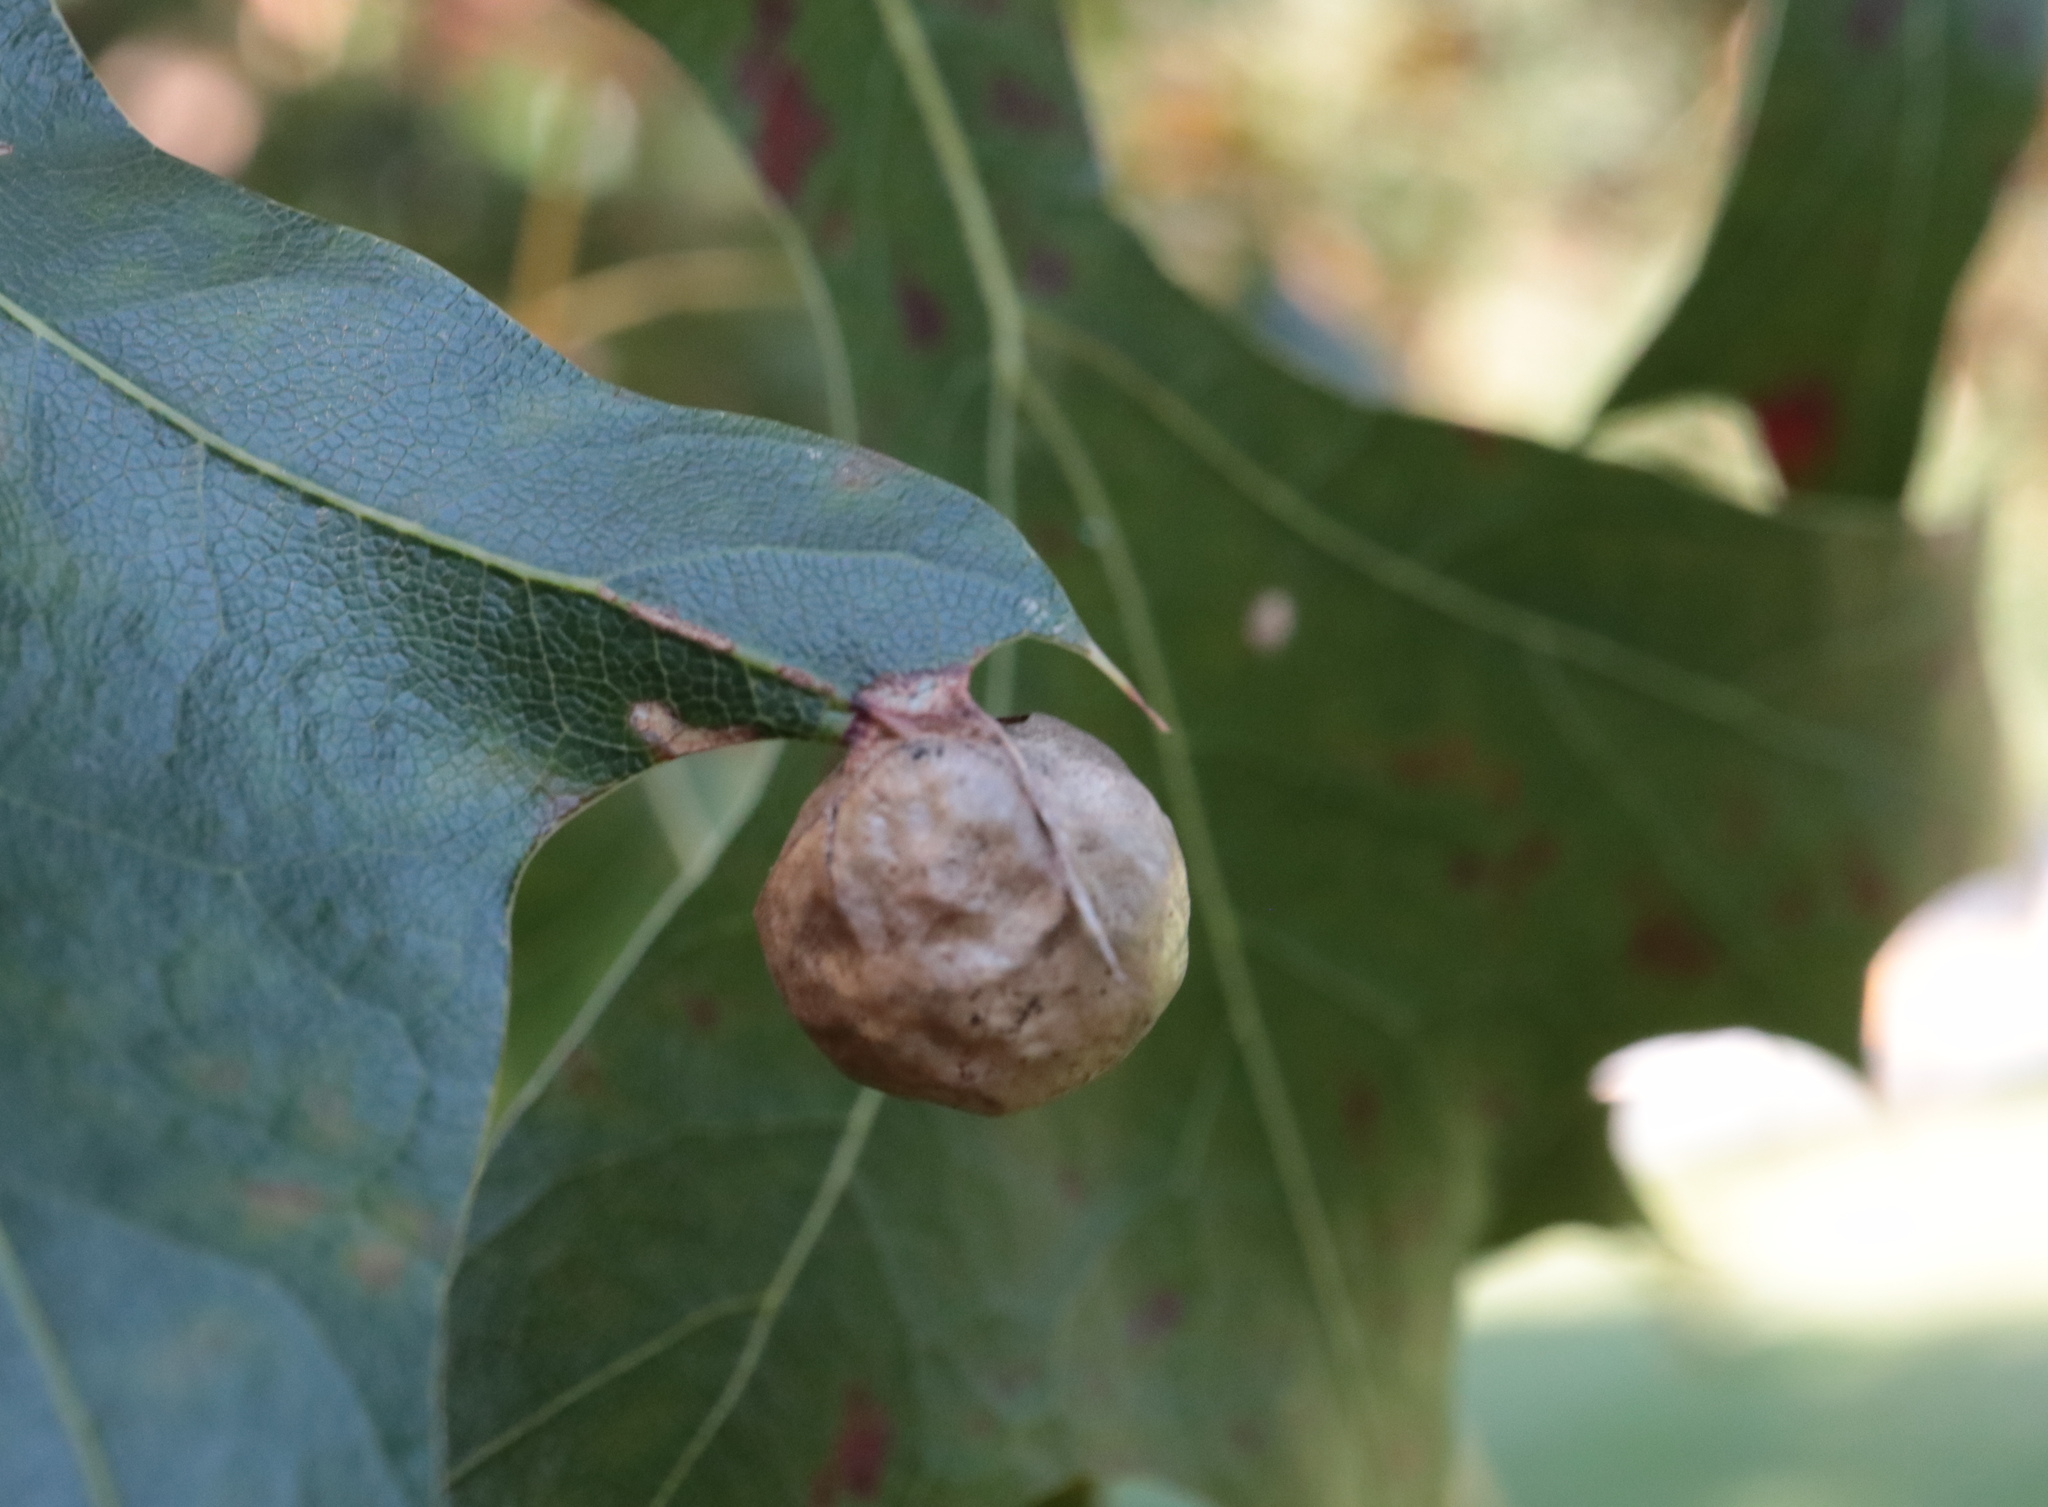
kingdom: Animalia
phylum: Arthropoda
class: Insecta
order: Hymenoptera
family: Cynipidae
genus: Amphibolips
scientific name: Amphibolips
